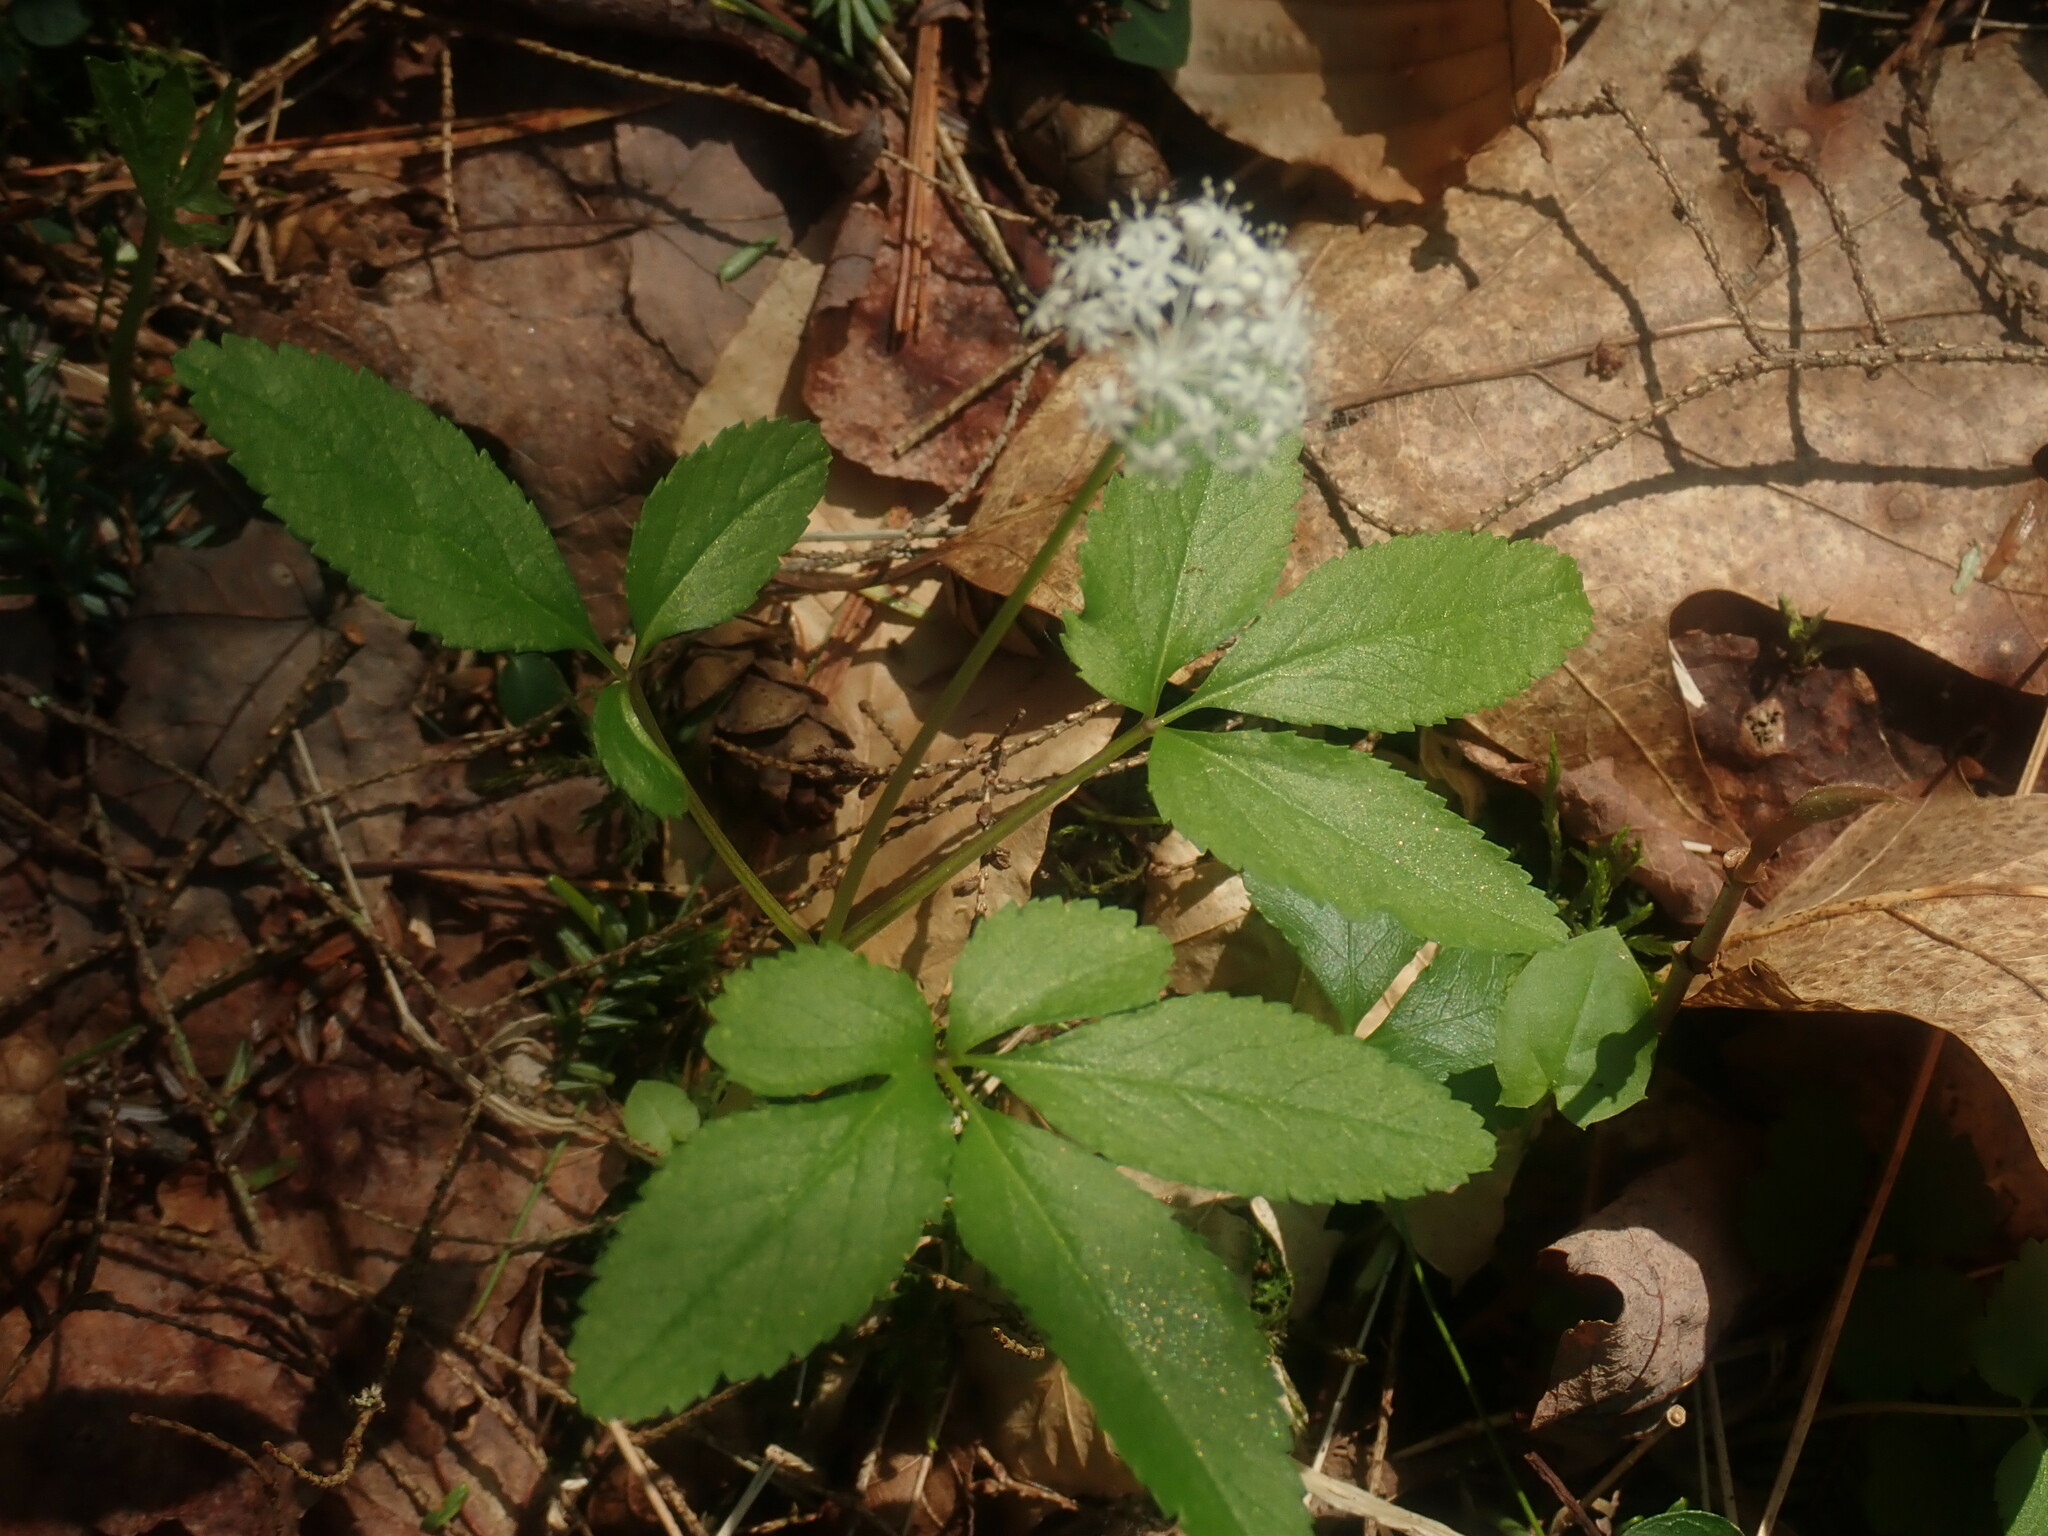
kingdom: Plantae
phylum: Tracheophyta
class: Magnoliopsida
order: Apiales
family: Araliaceae
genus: Panax
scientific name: Panax trifolius
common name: Dwarf ginseng
